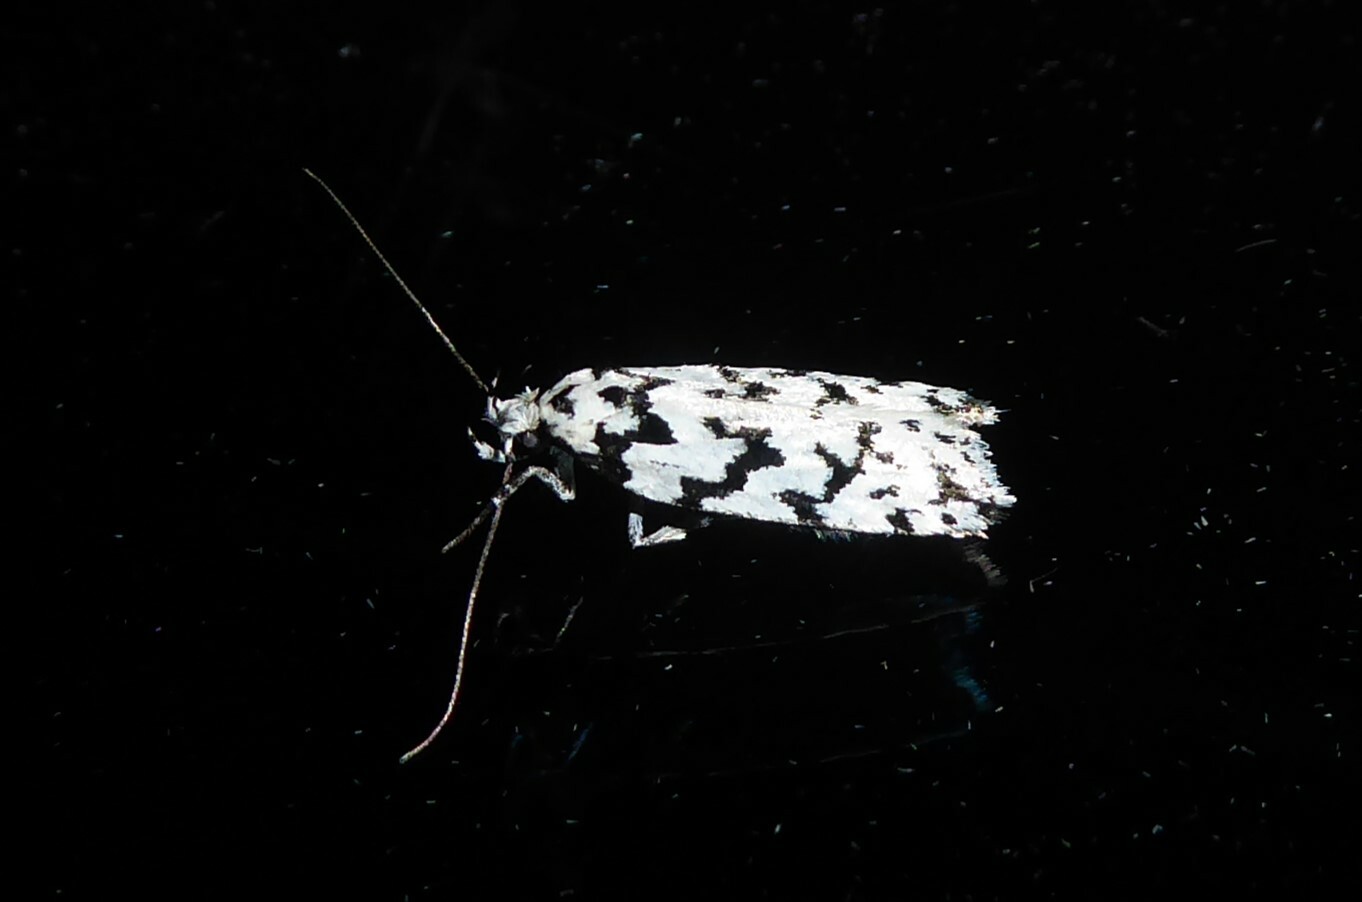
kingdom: Animalia
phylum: Arthropoda
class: Insecta
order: Lepidoptera
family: Oecophoridae
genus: Izatha
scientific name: Izatha katadiktya
